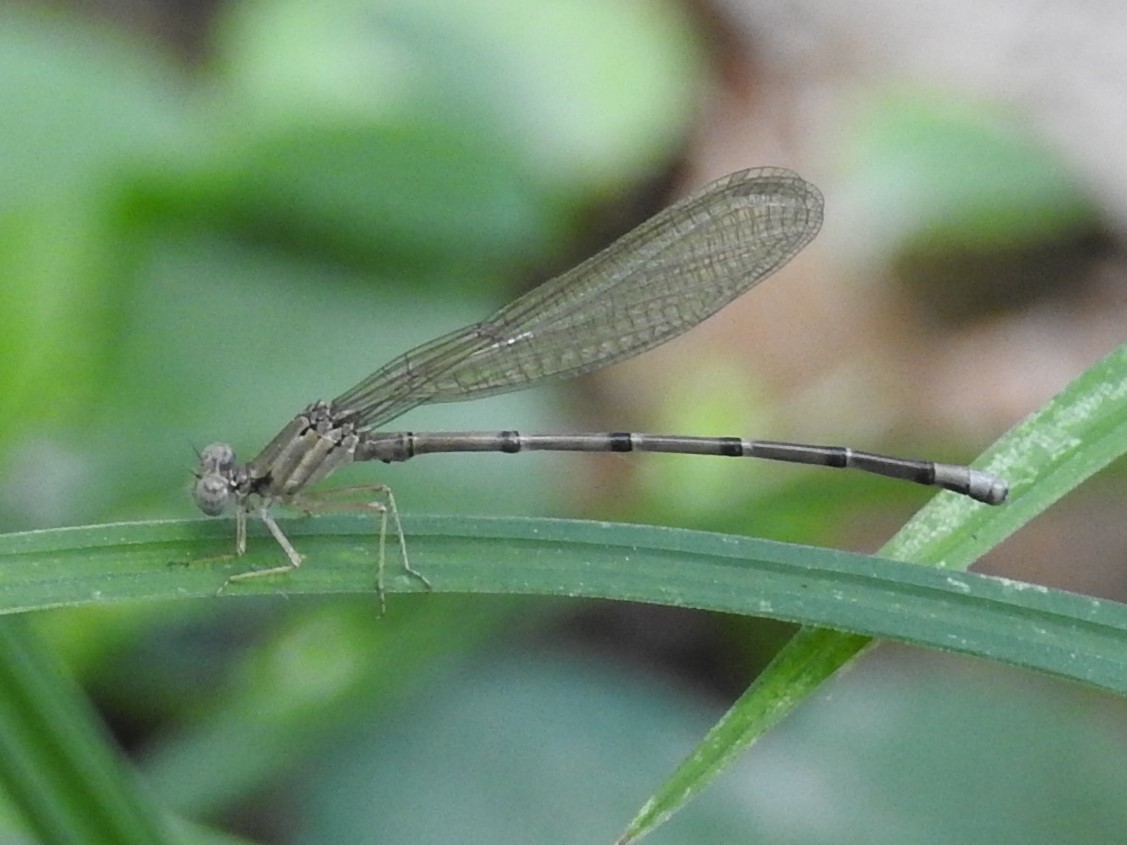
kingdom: Animalia
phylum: Arthropoda
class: Insecta
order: Odonata
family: Coenagrionidae
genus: Argia
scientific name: Argia apicalis
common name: Blue-fronted dancer
